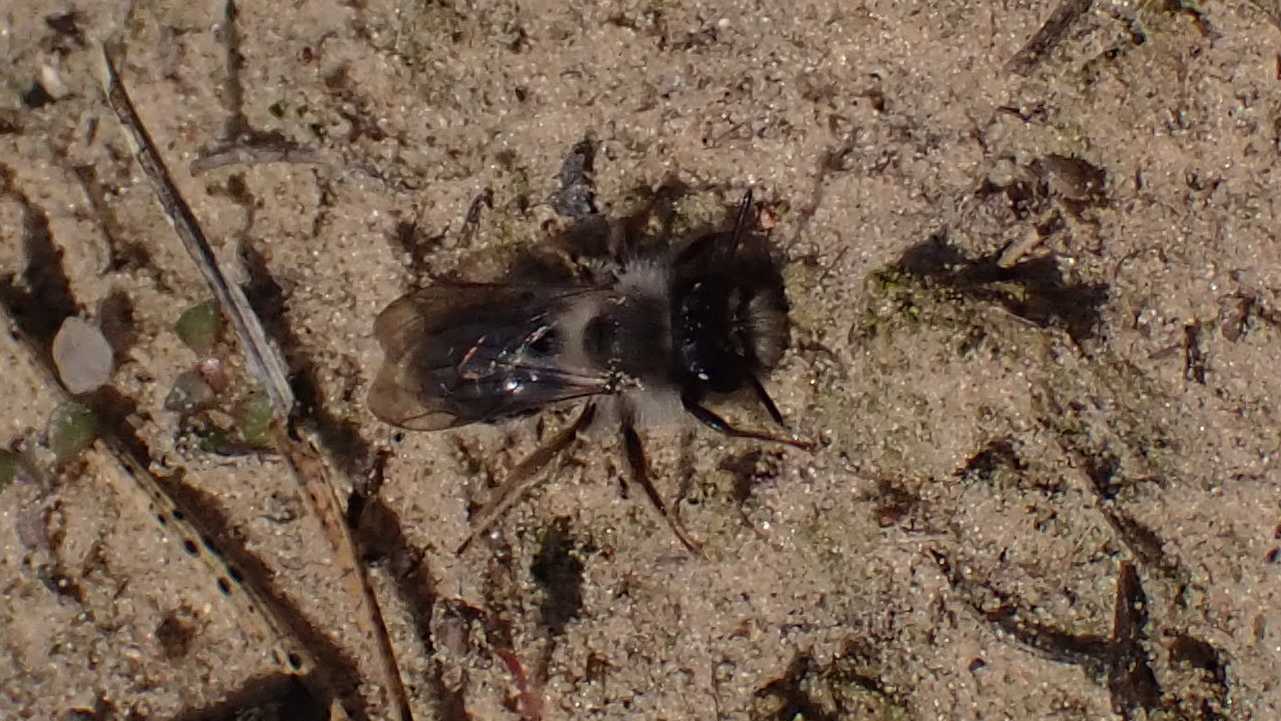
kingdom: Animalia
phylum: Arthropoda
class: Insecta
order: Hymenoptera
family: Andrenidae
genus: Andrena
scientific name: Andrena vaga
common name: Grey-backed mining bee
